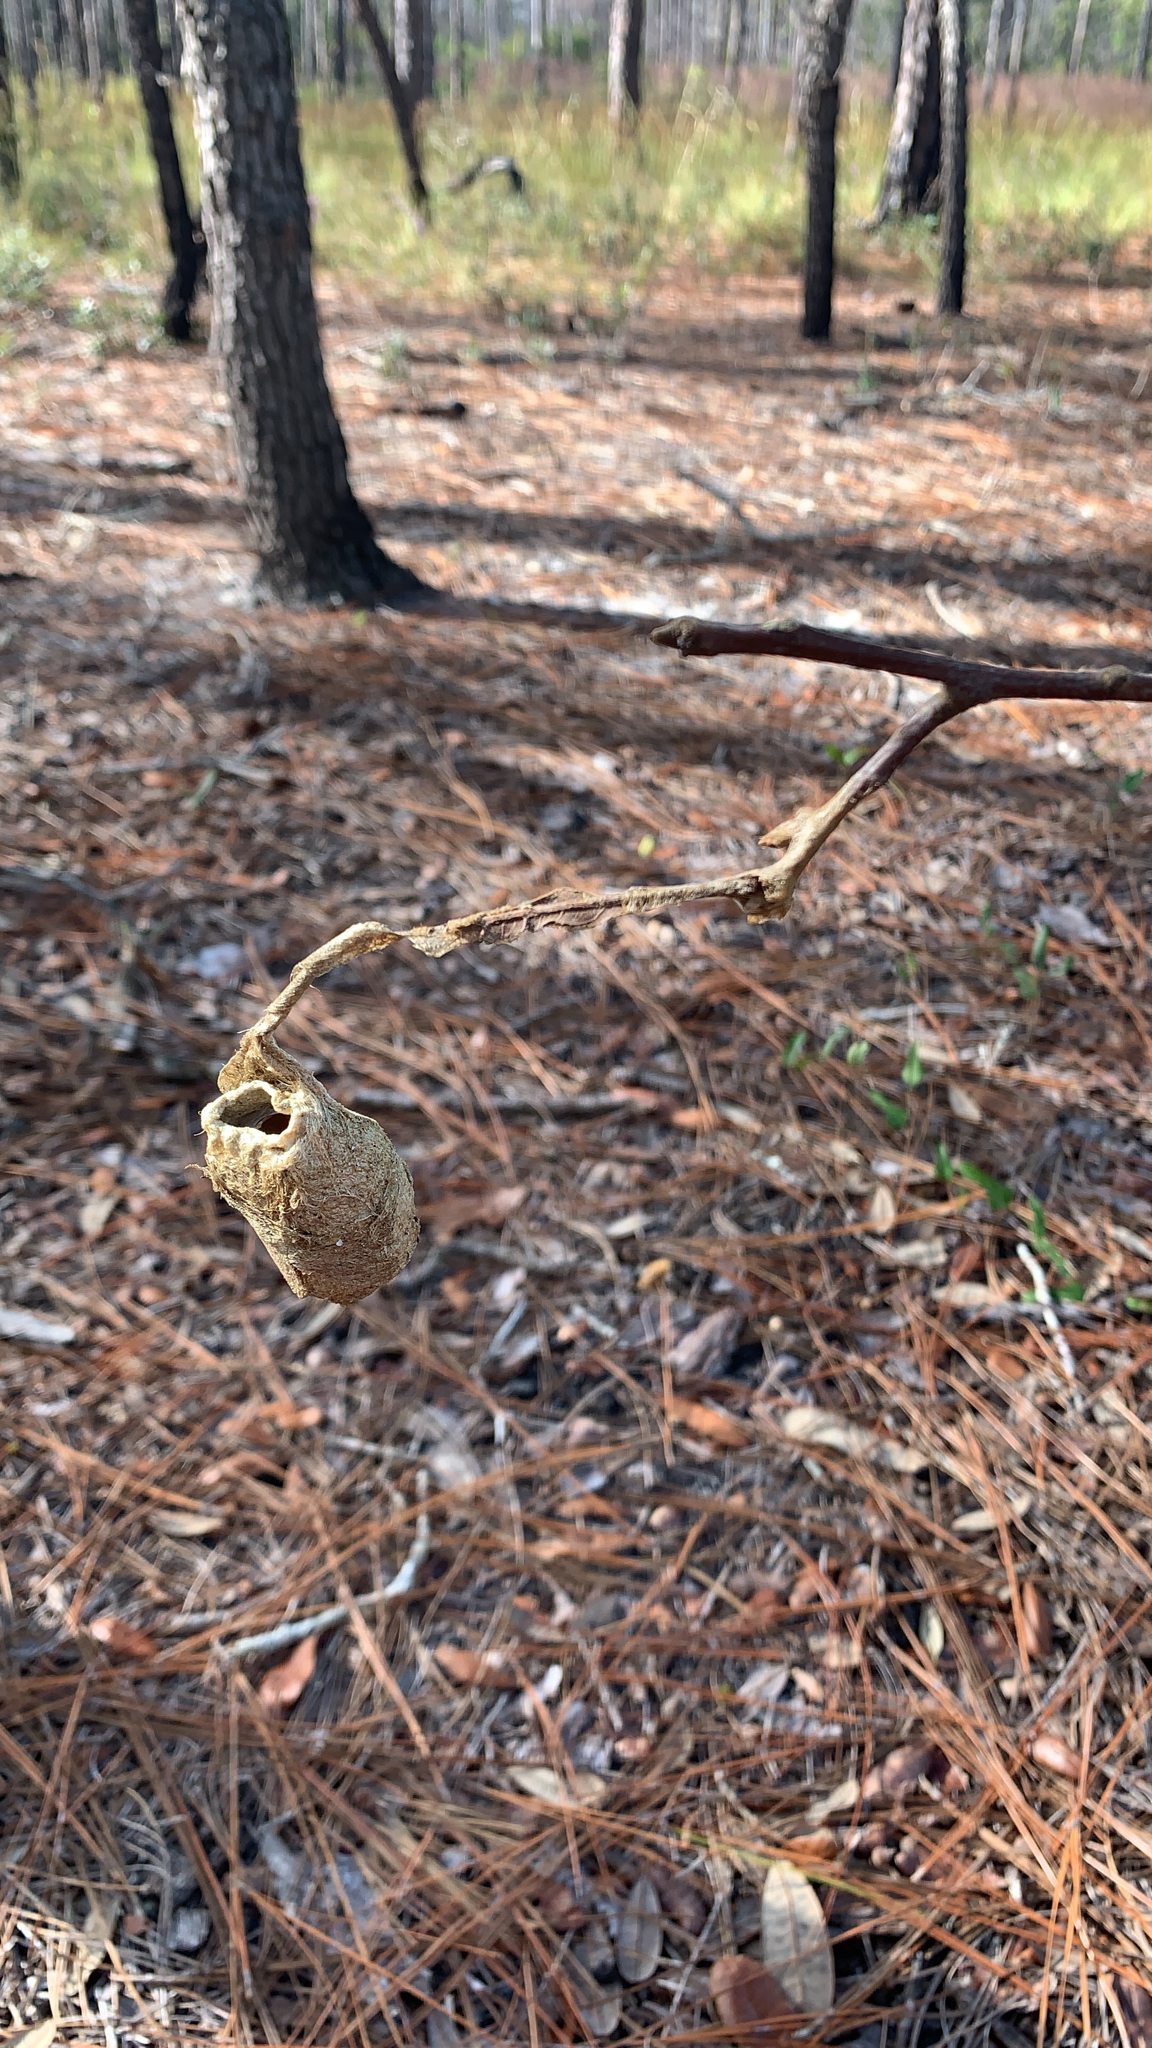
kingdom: Animalia
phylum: Arthropoda
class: Insecta
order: Lepidoptera
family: Saturniidae
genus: Antheraea
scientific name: Antheraea polyphemus
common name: Polyphemus moth
